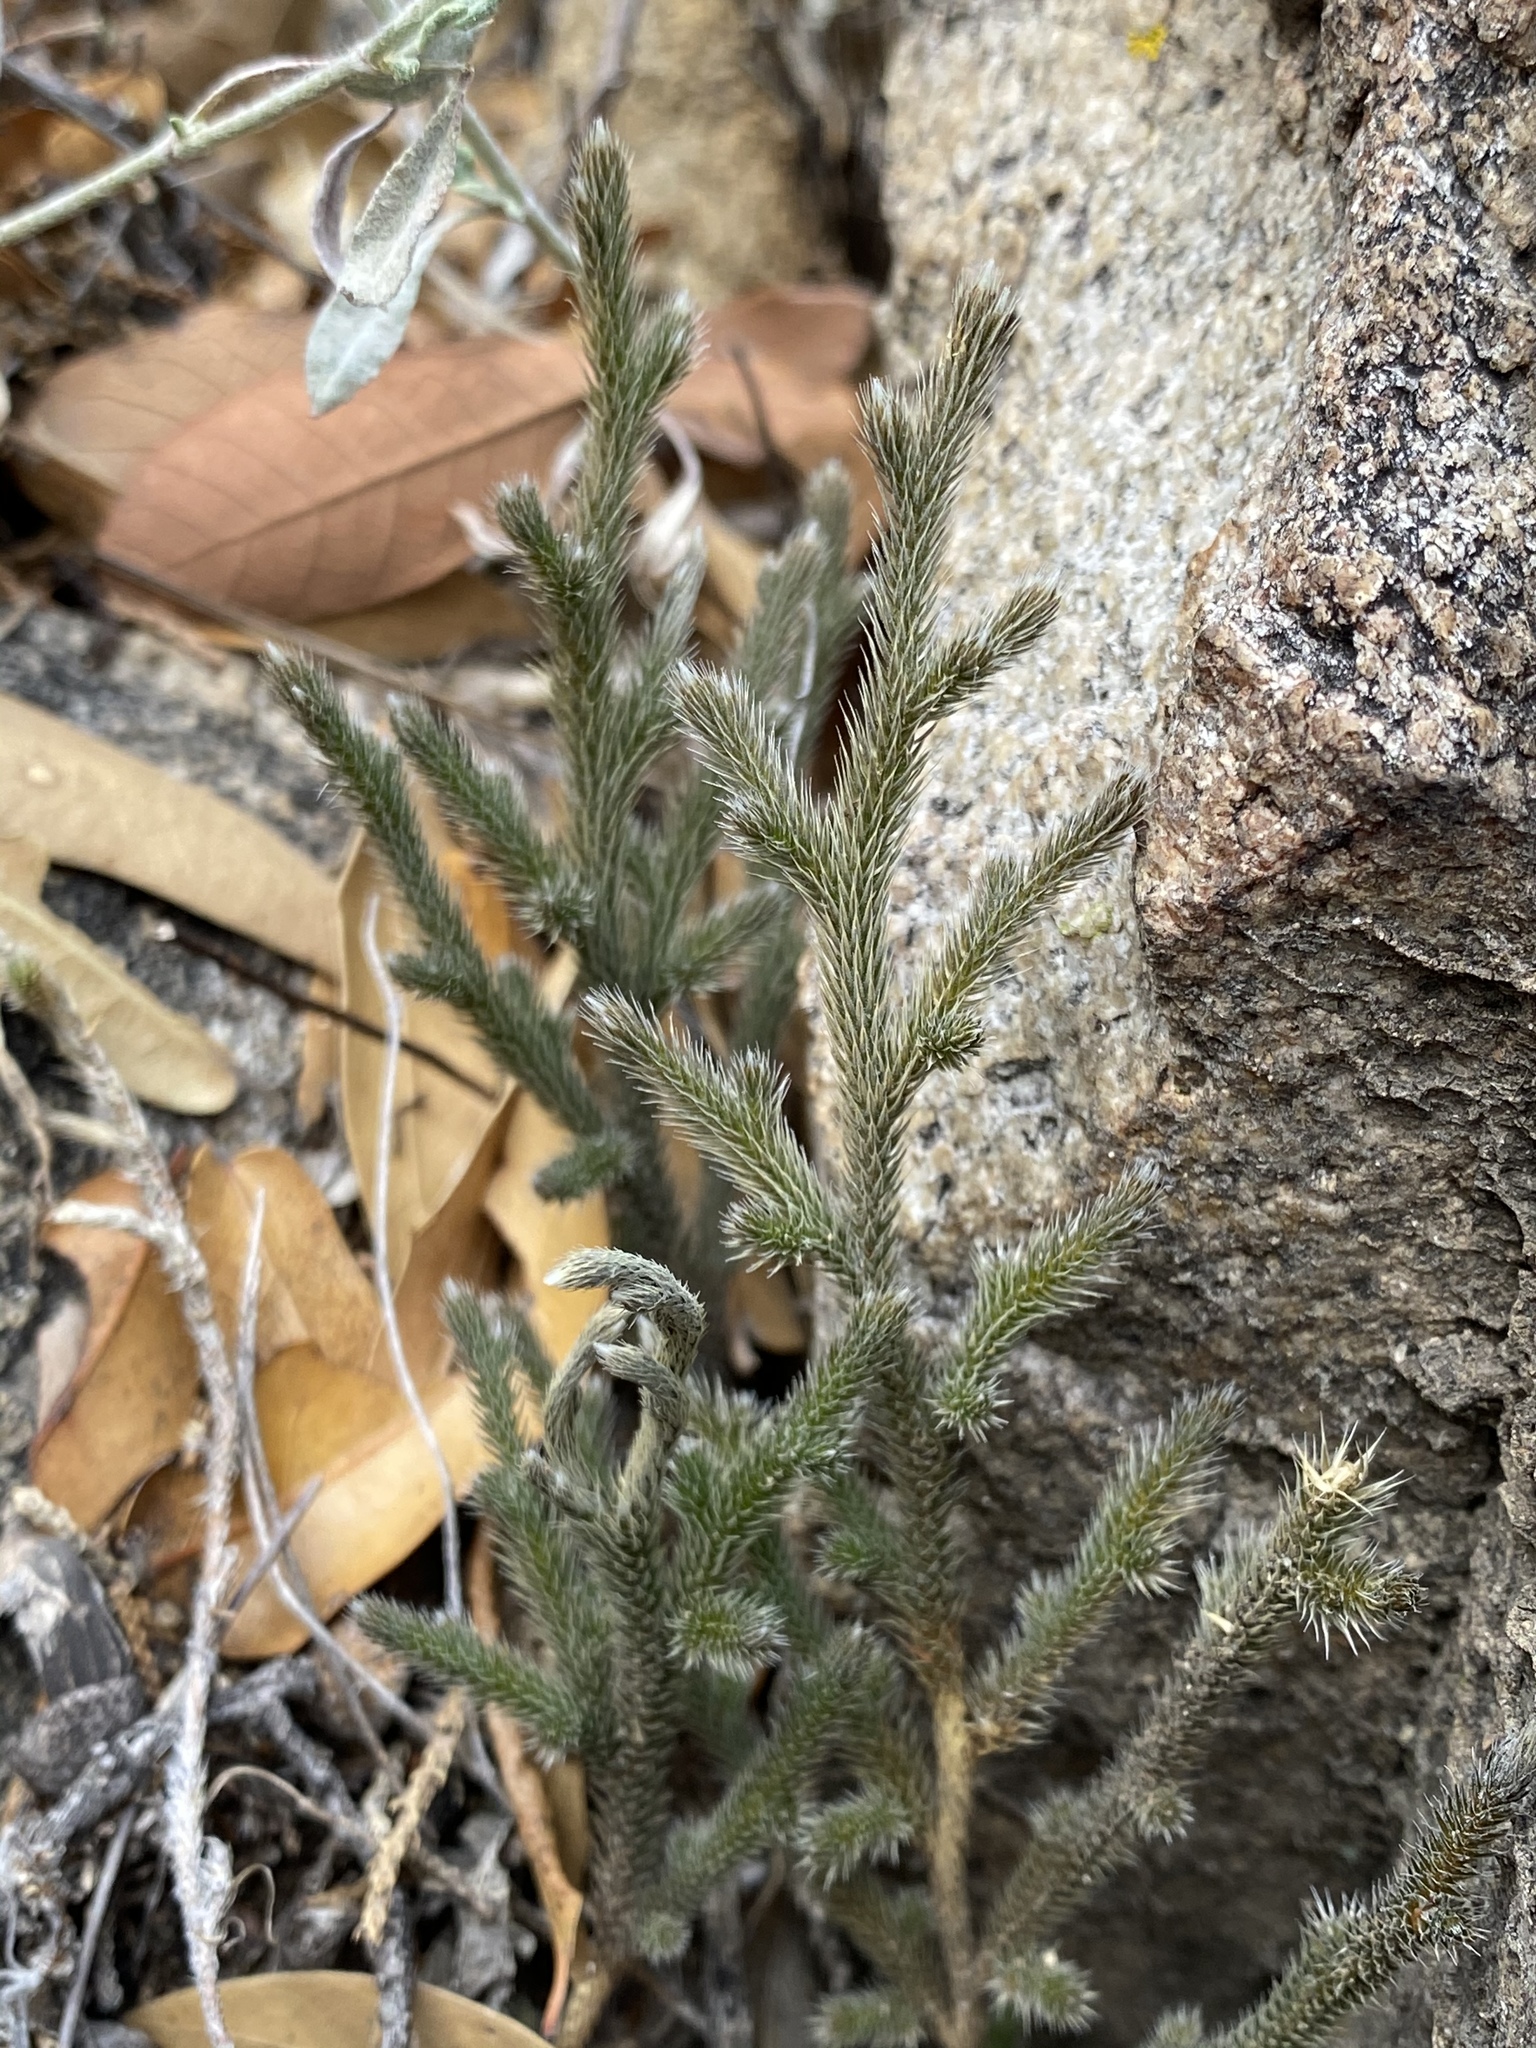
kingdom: Plantae
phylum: Tracheophyta
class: Lycopodiopsida
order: Selaginellales
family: Selaginellaceae
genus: Selaginella
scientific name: Selaginella rupincola
